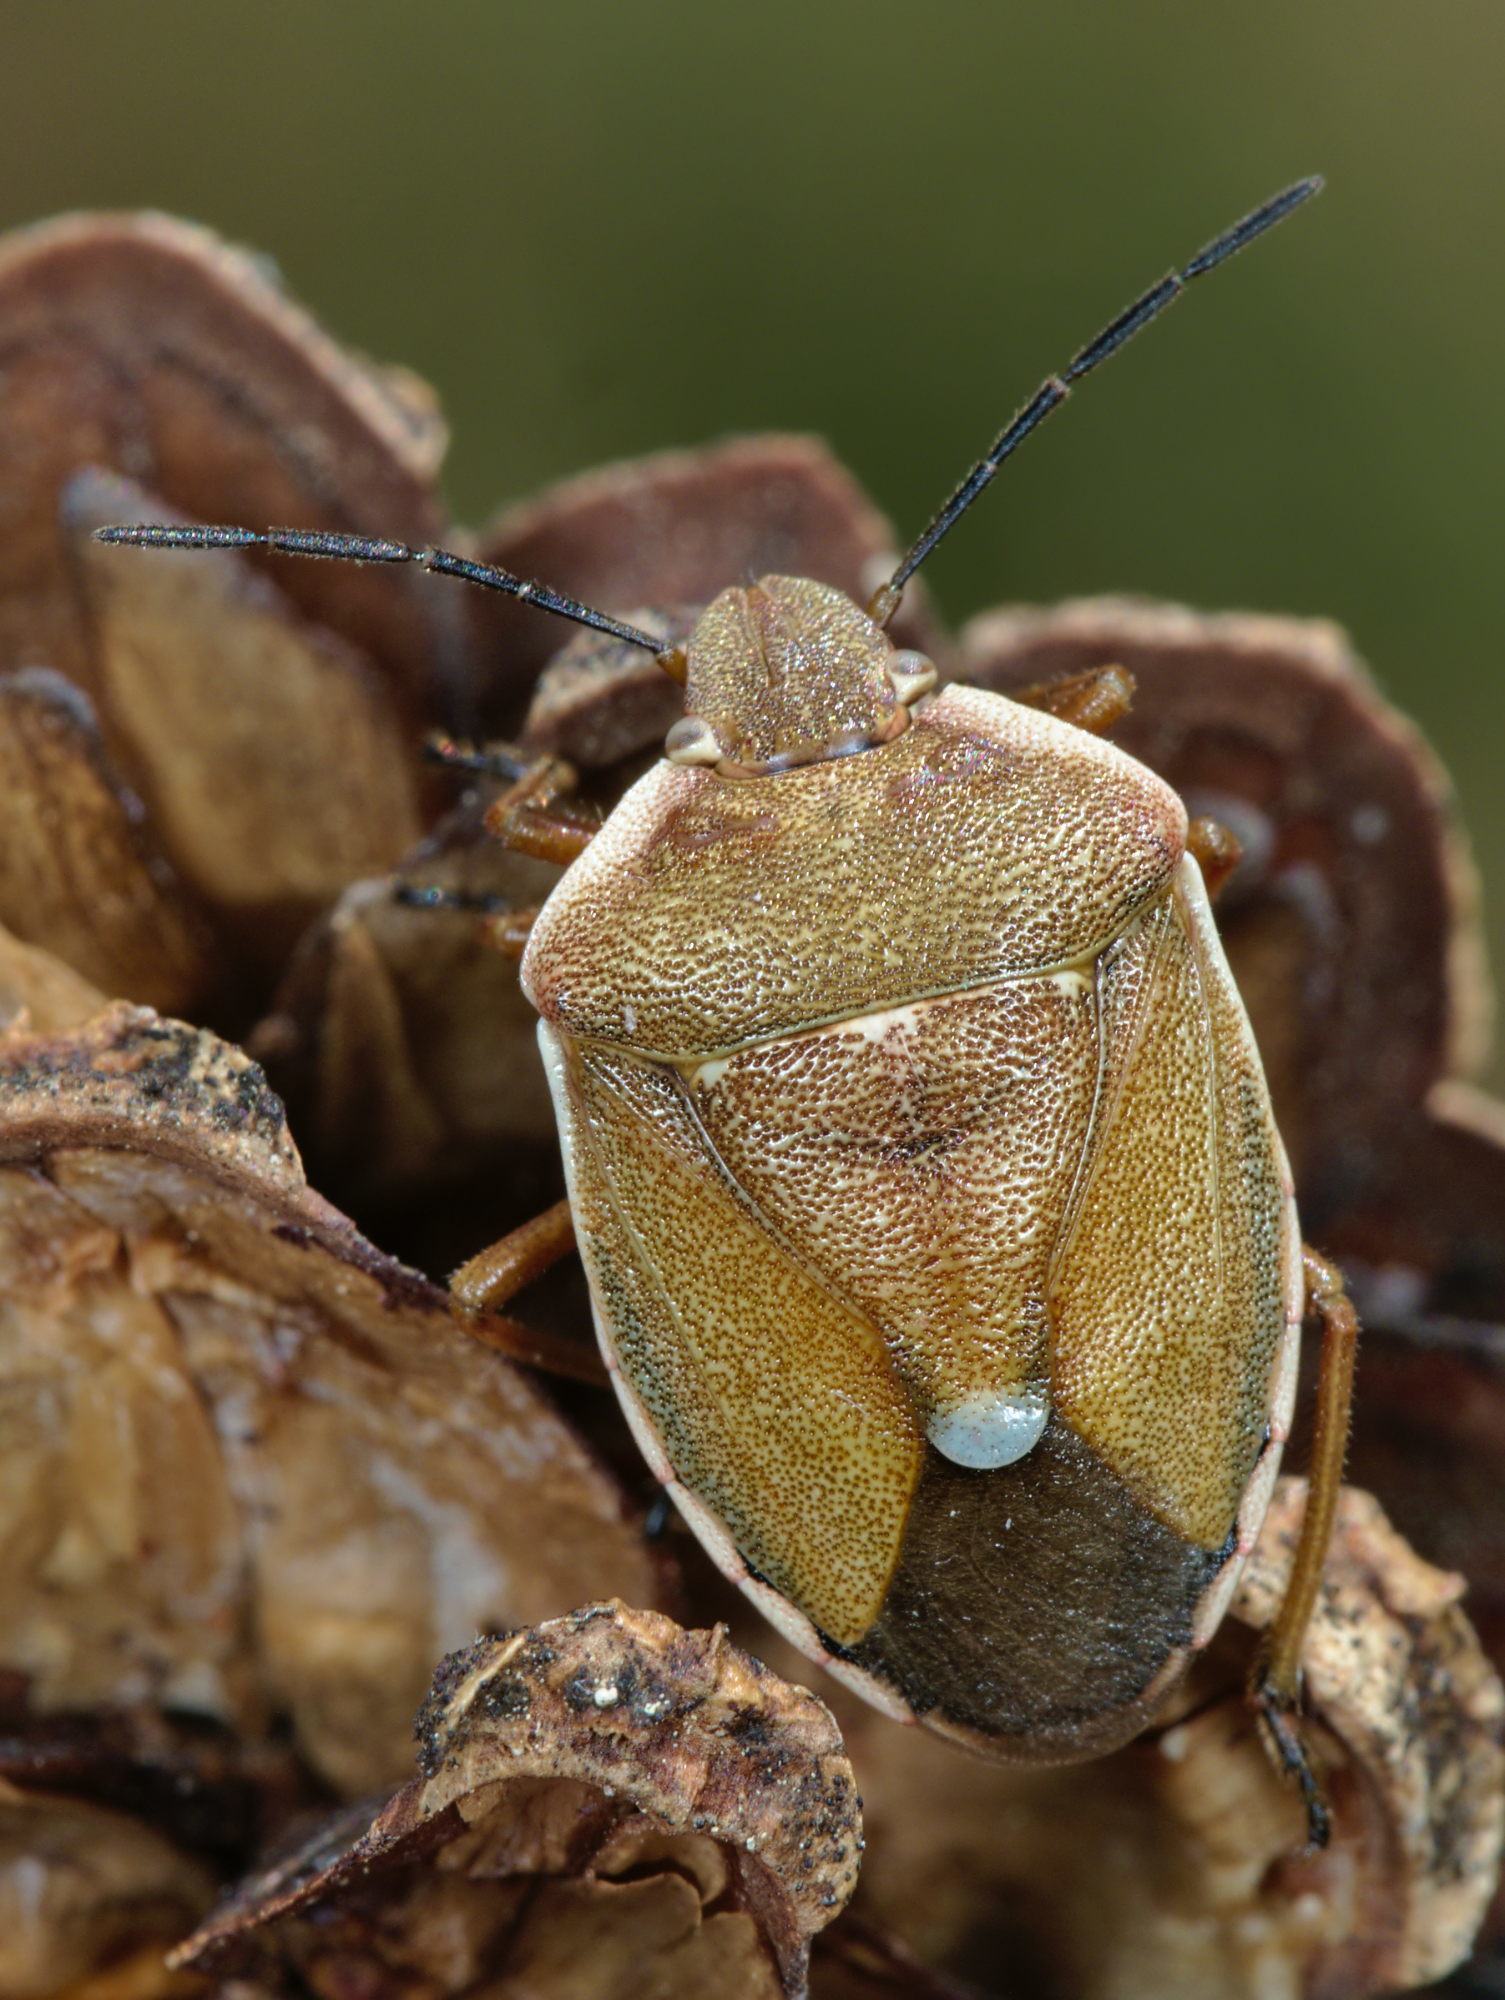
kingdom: Animalia
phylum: Arthropoda
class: Insecta
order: Hemiptera
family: Pentatomidae
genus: Chlorochroa
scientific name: Chlorochroa pinicola
